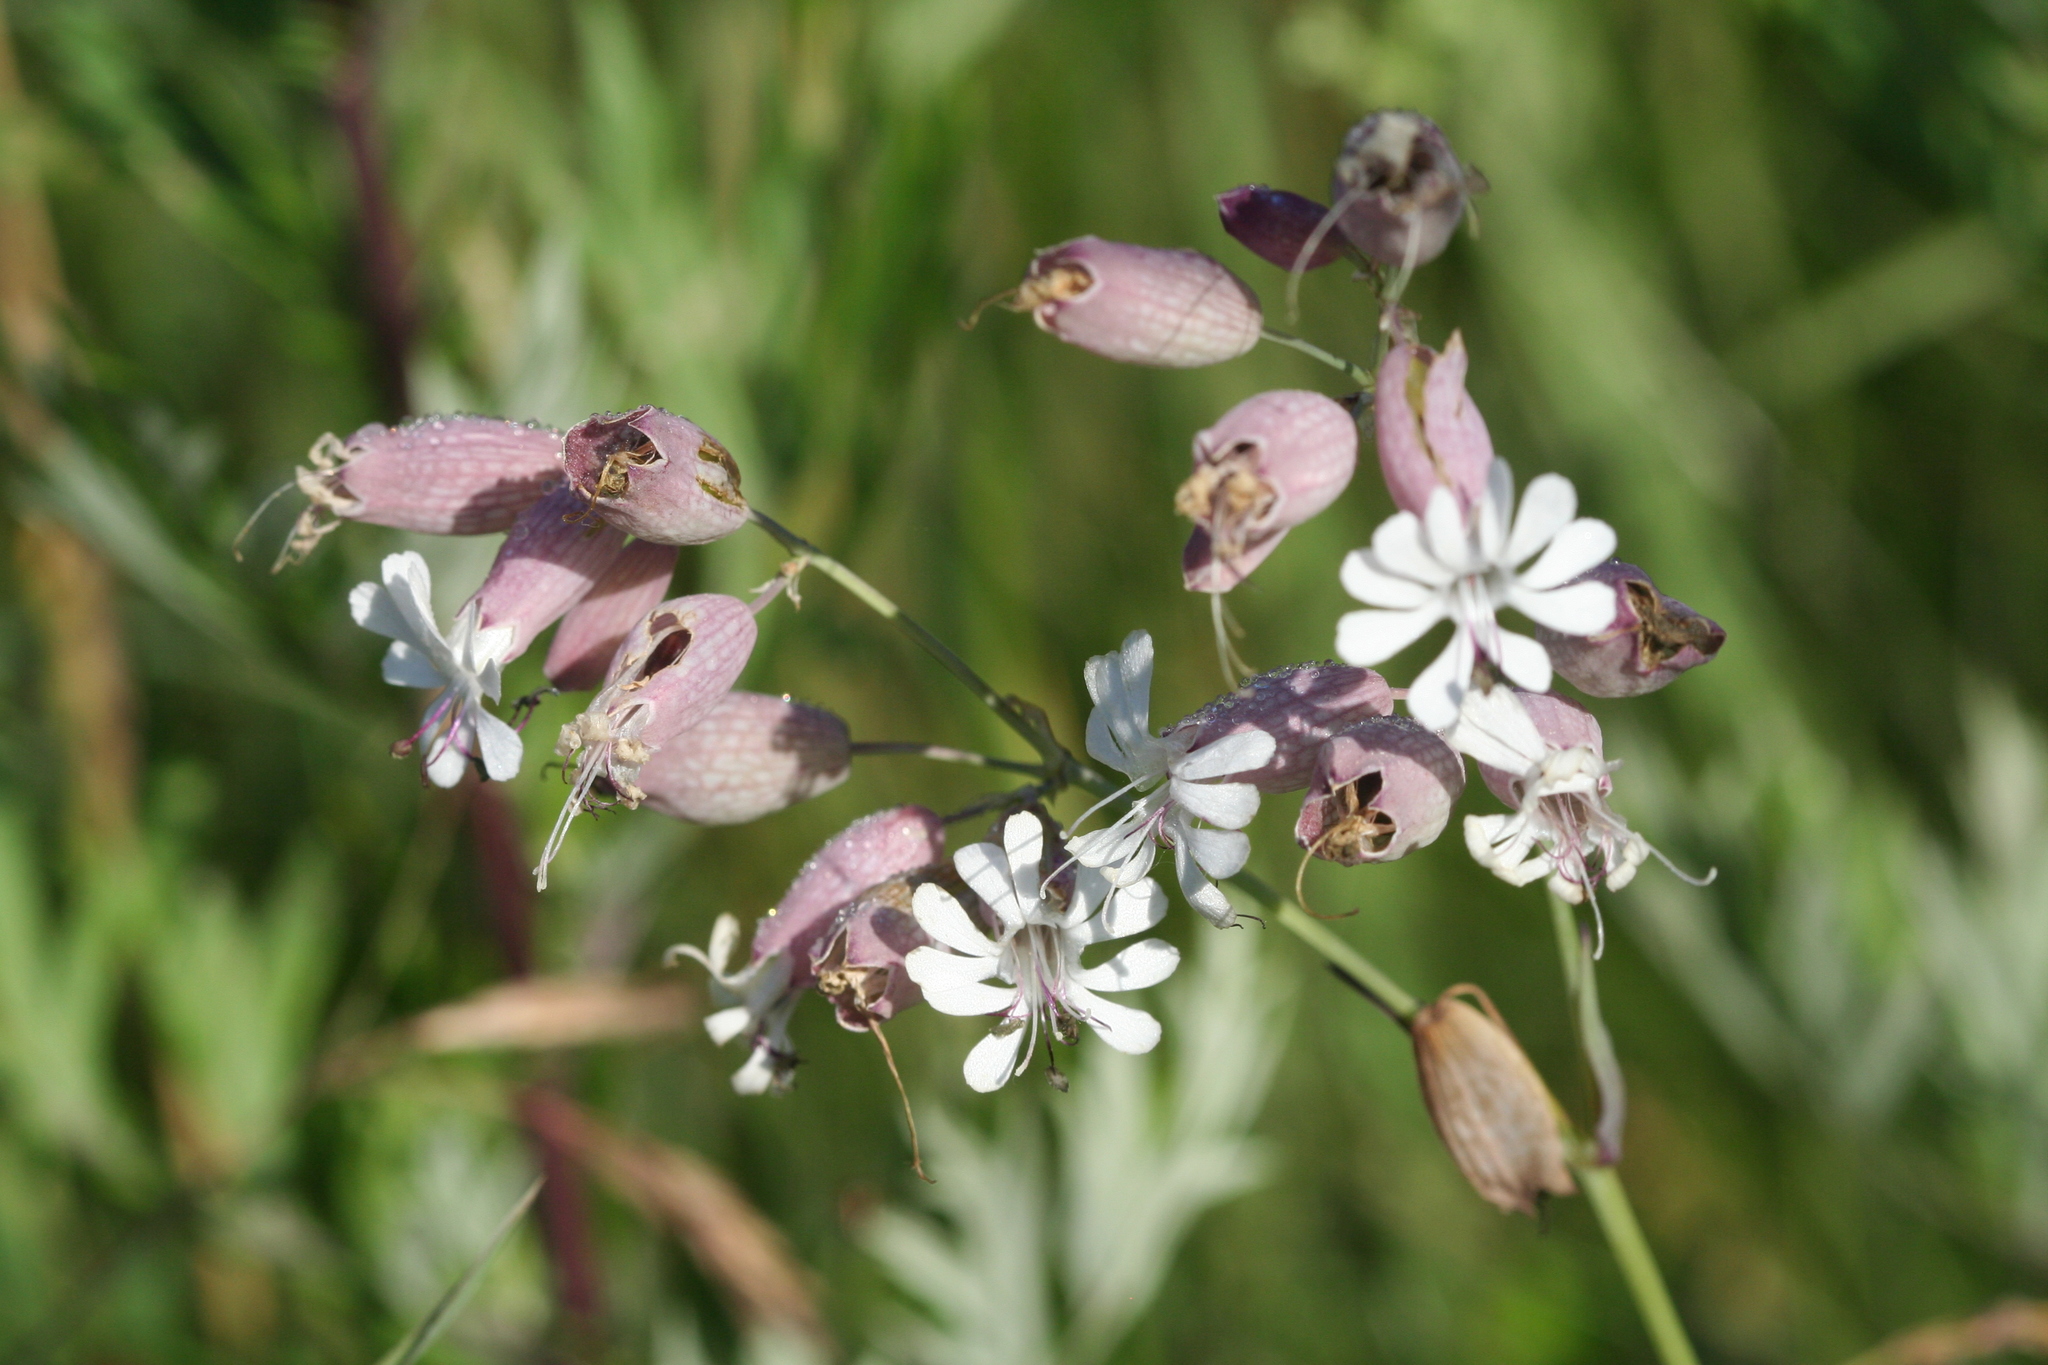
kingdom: Plantae
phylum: Tracheophyta
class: Magnoliopsida
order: Caryophyllales
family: Caryophyllaceae
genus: Silene
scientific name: Silene vulgaris
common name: Bladder campion
